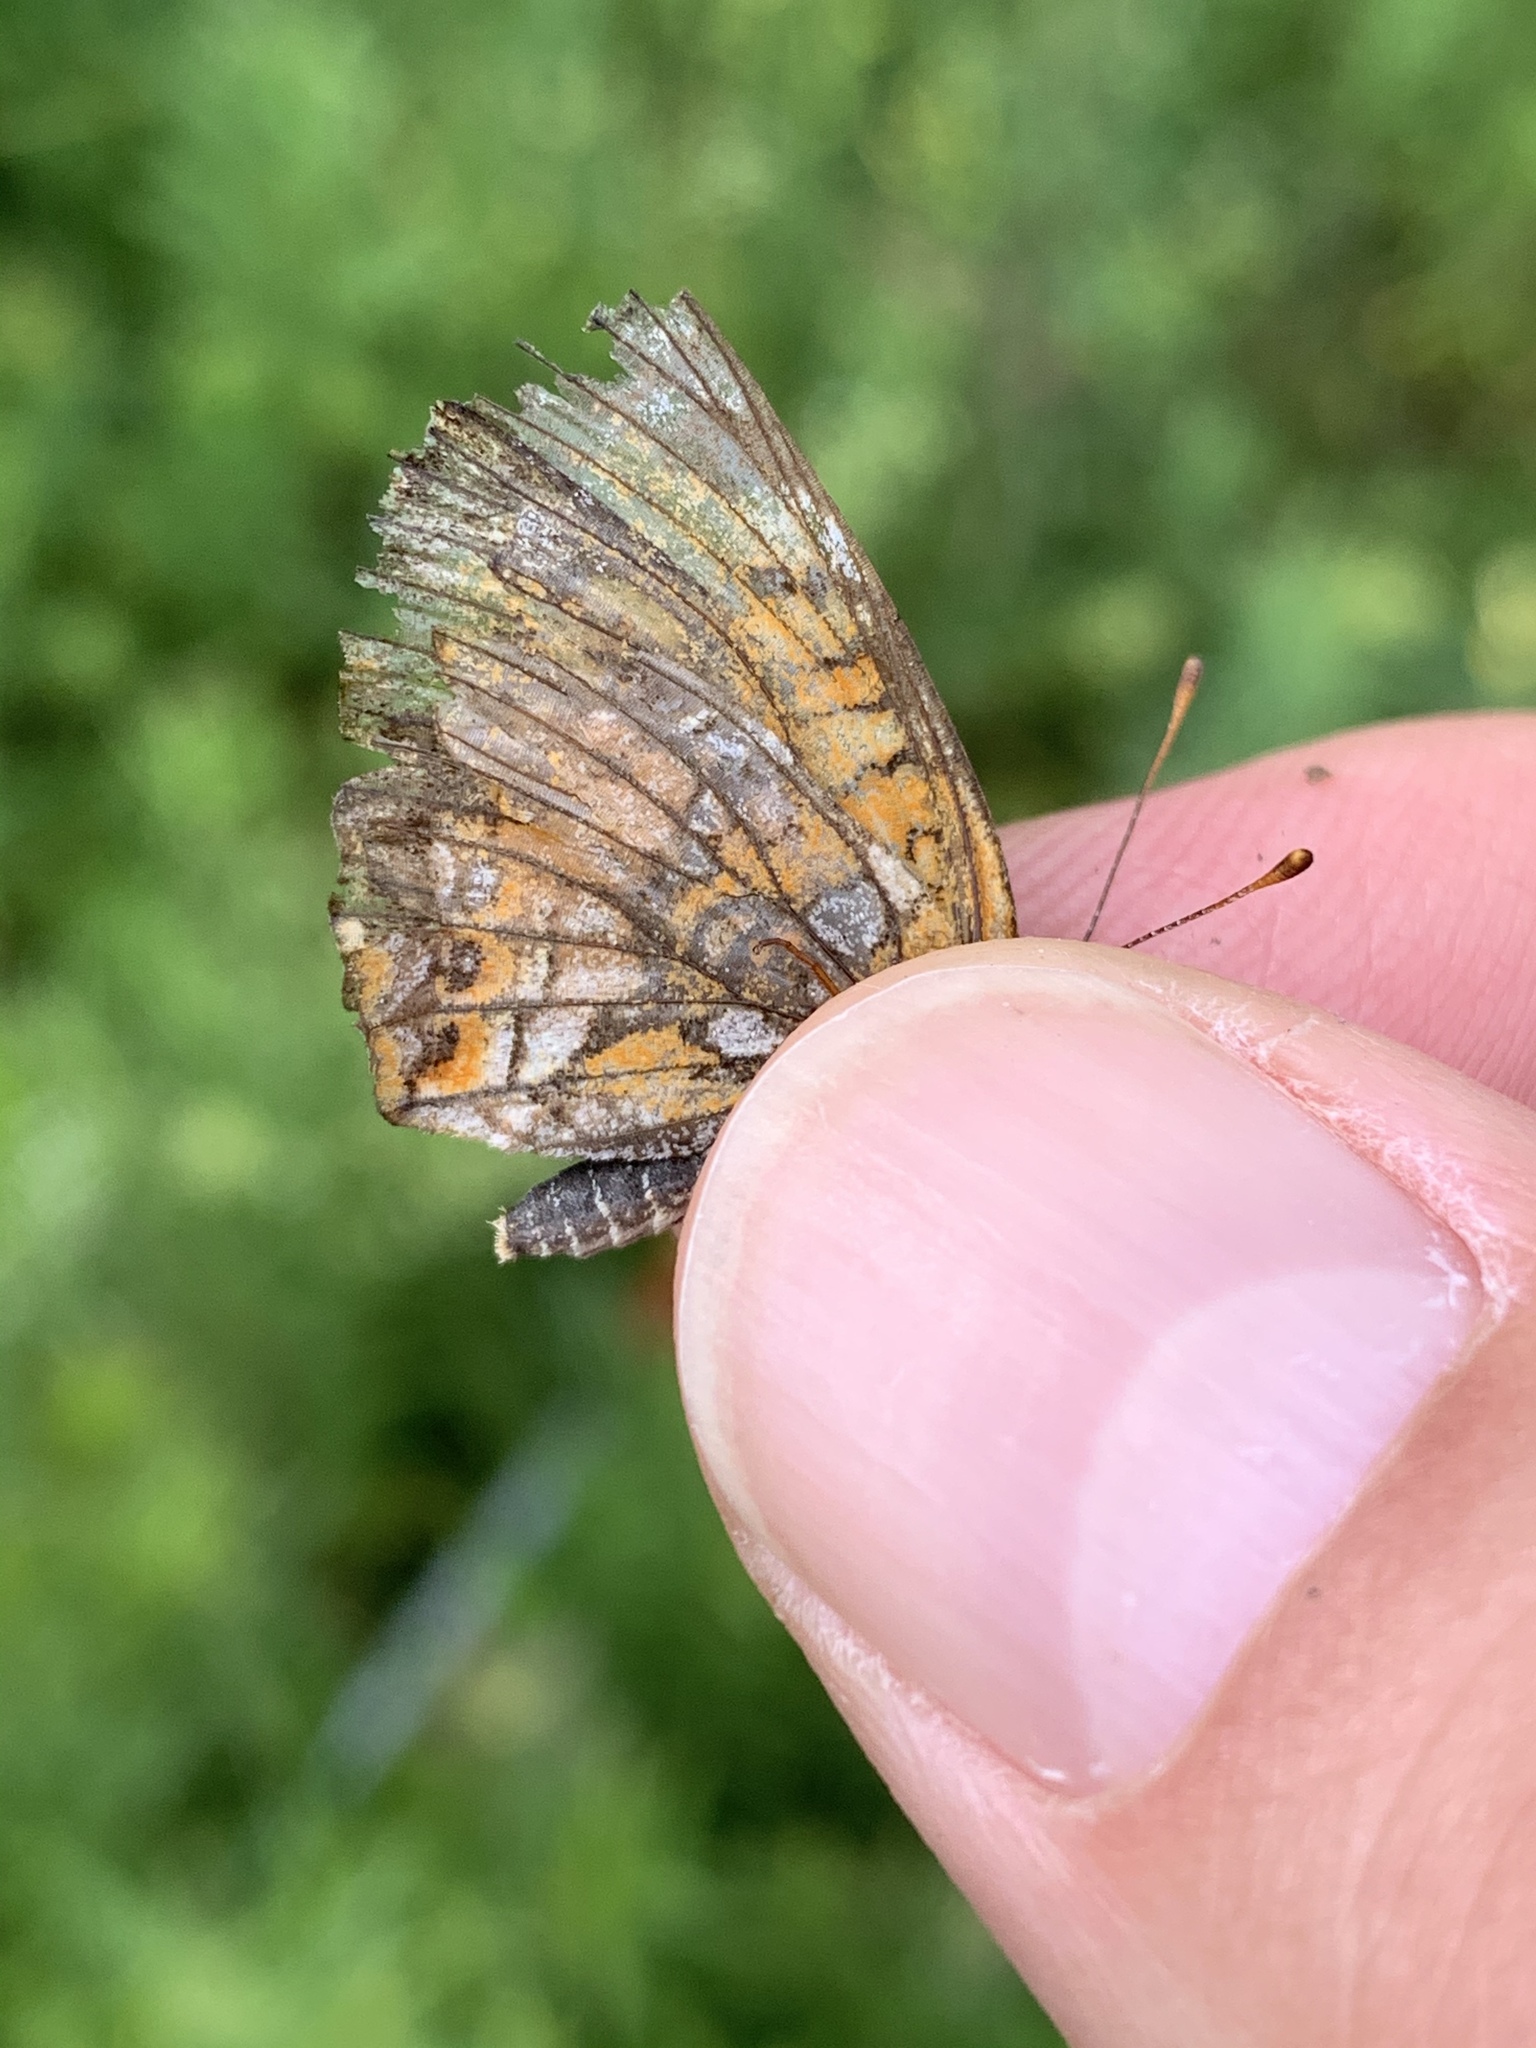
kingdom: Animalia
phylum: Arthropoda
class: Insecta
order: Lepidoptera
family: Nymphalidae
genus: Chlosyne
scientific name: Chlosyne harrisii
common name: Harris's checkerspot
